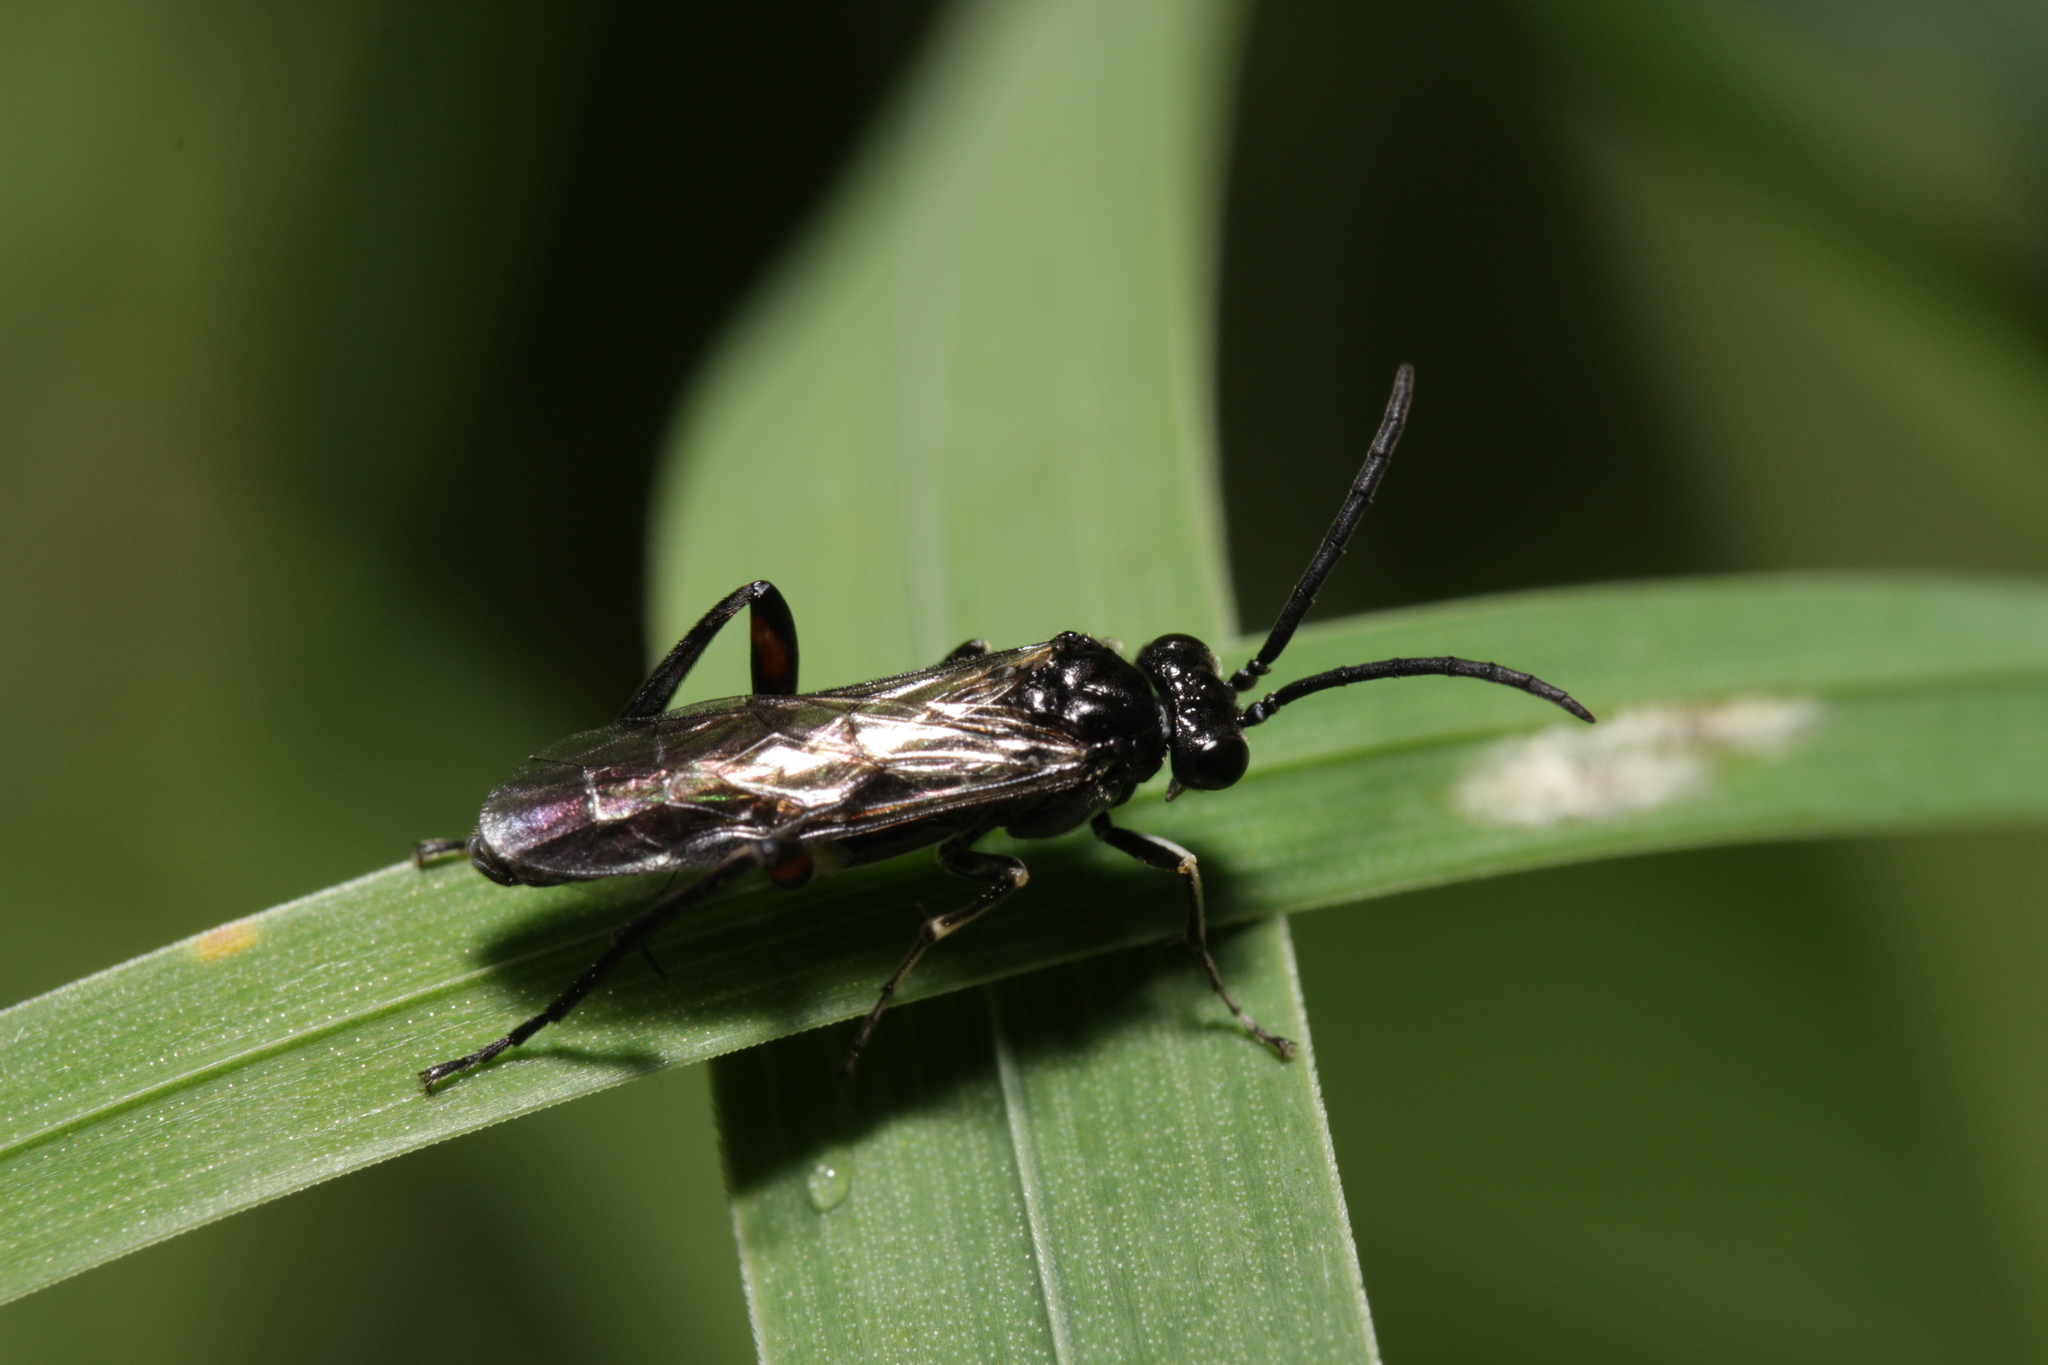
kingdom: Animalia
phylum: Arthropoda
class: Insecta
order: Hymenoptera
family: Tenthredinidae
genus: Macrophya
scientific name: Macrophya sanguinolenta
